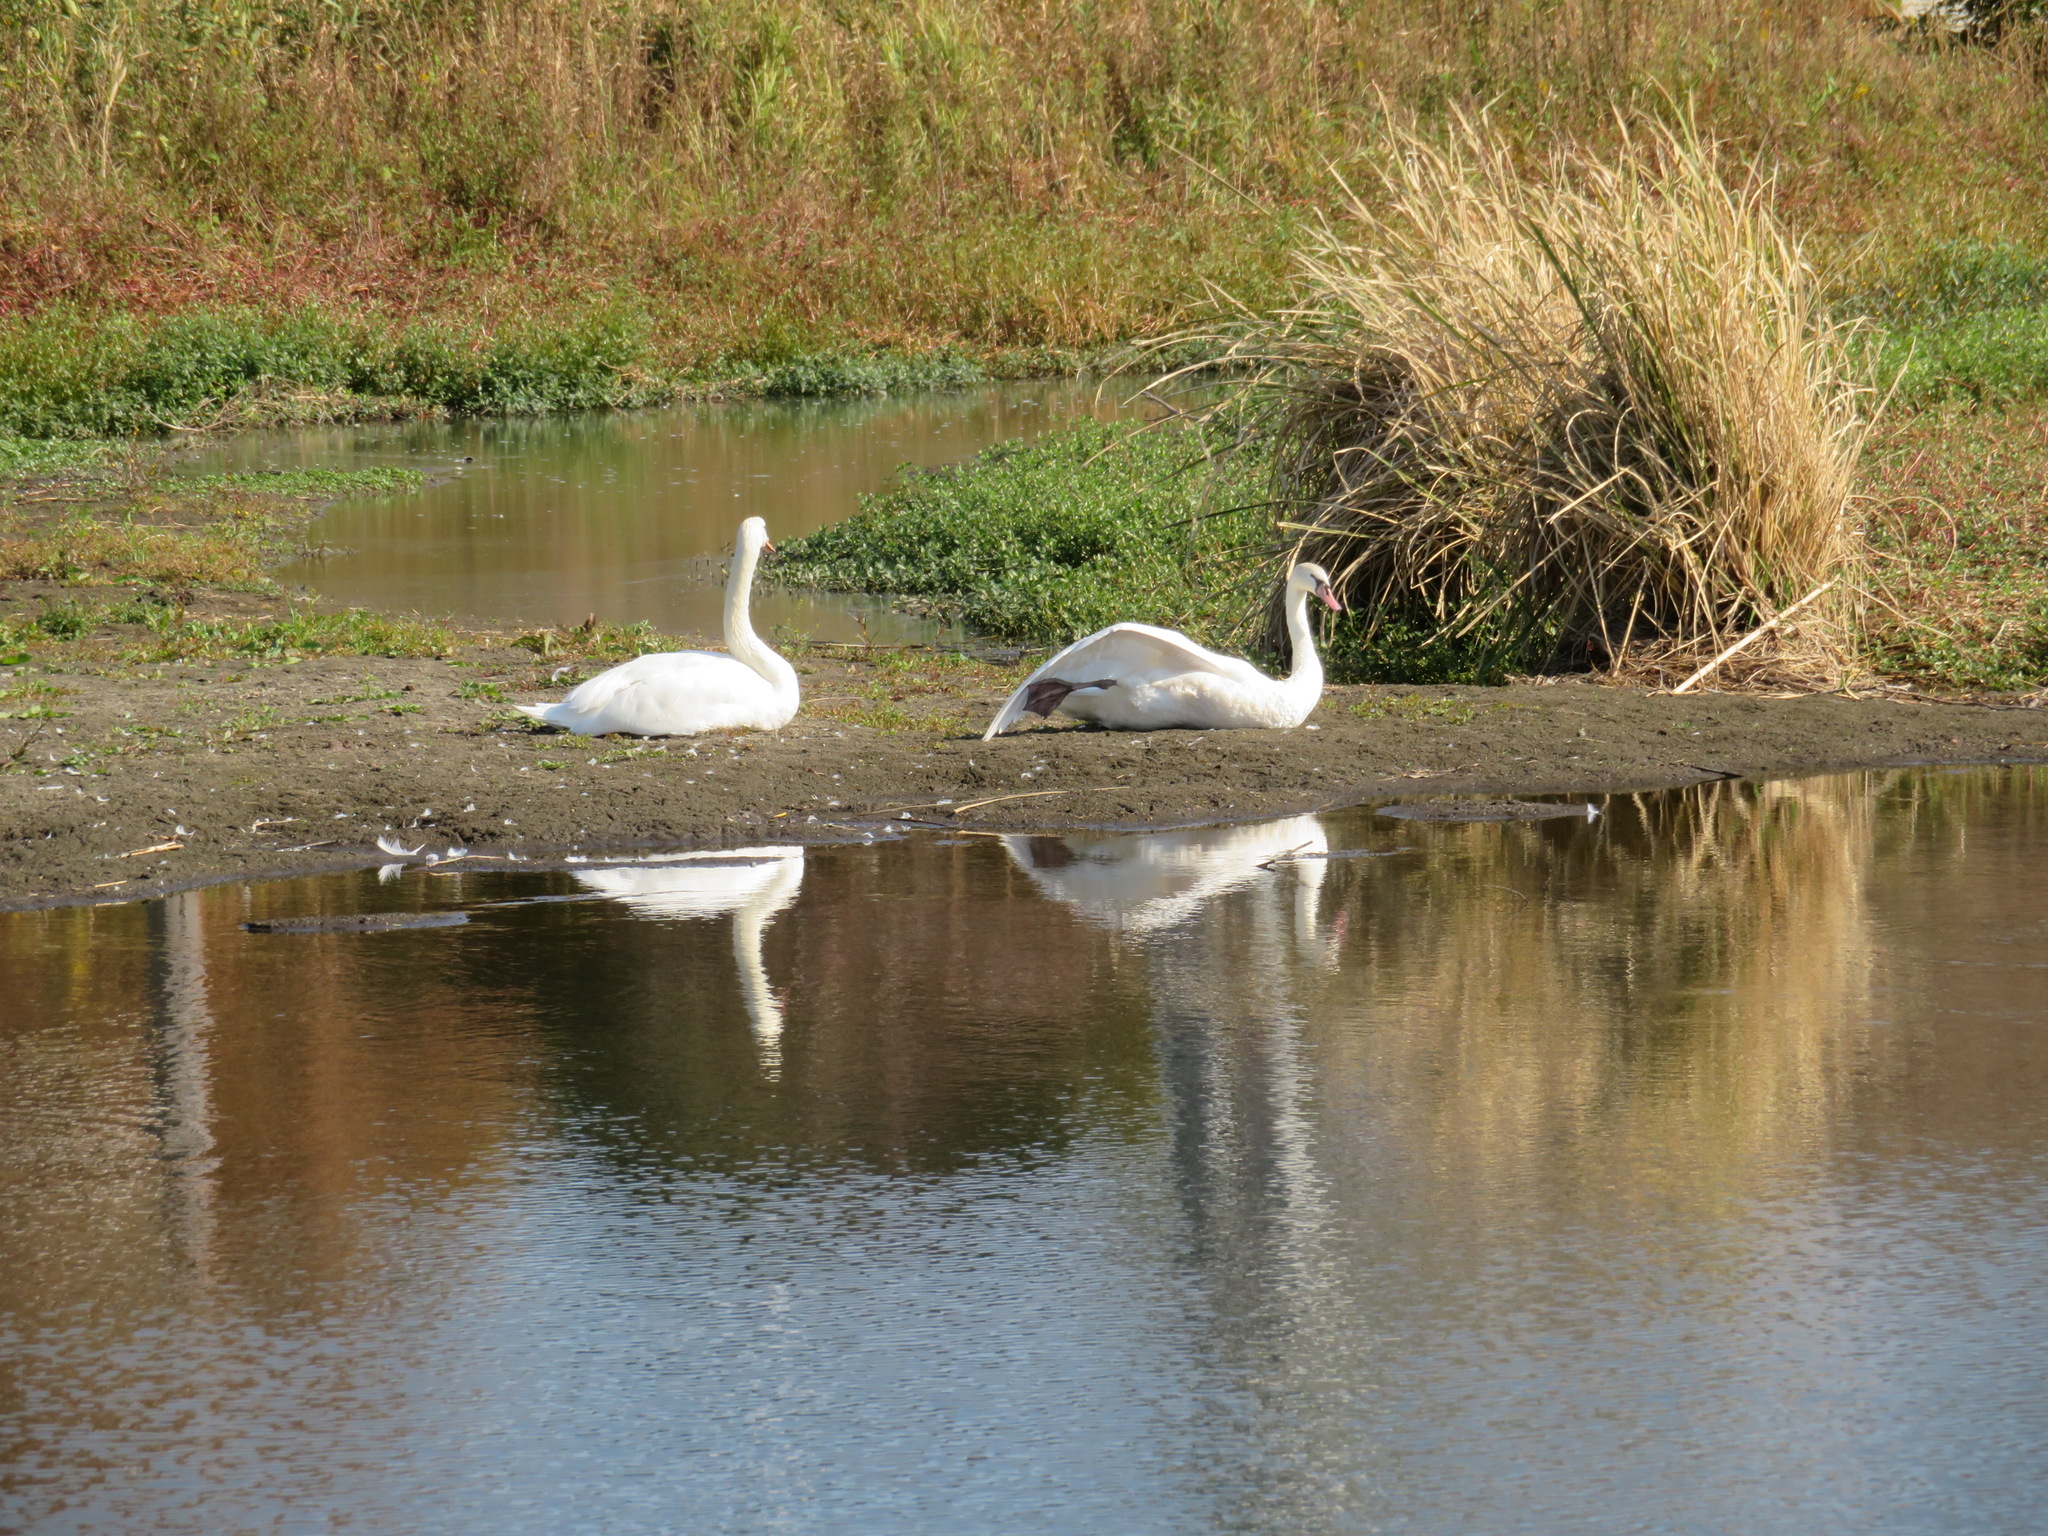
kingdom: Animalia
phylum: Chordata
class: Aves
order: Anseriformes
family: Anatidae
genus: Cygnus
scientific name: Cygnus olor
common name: Mute swan
